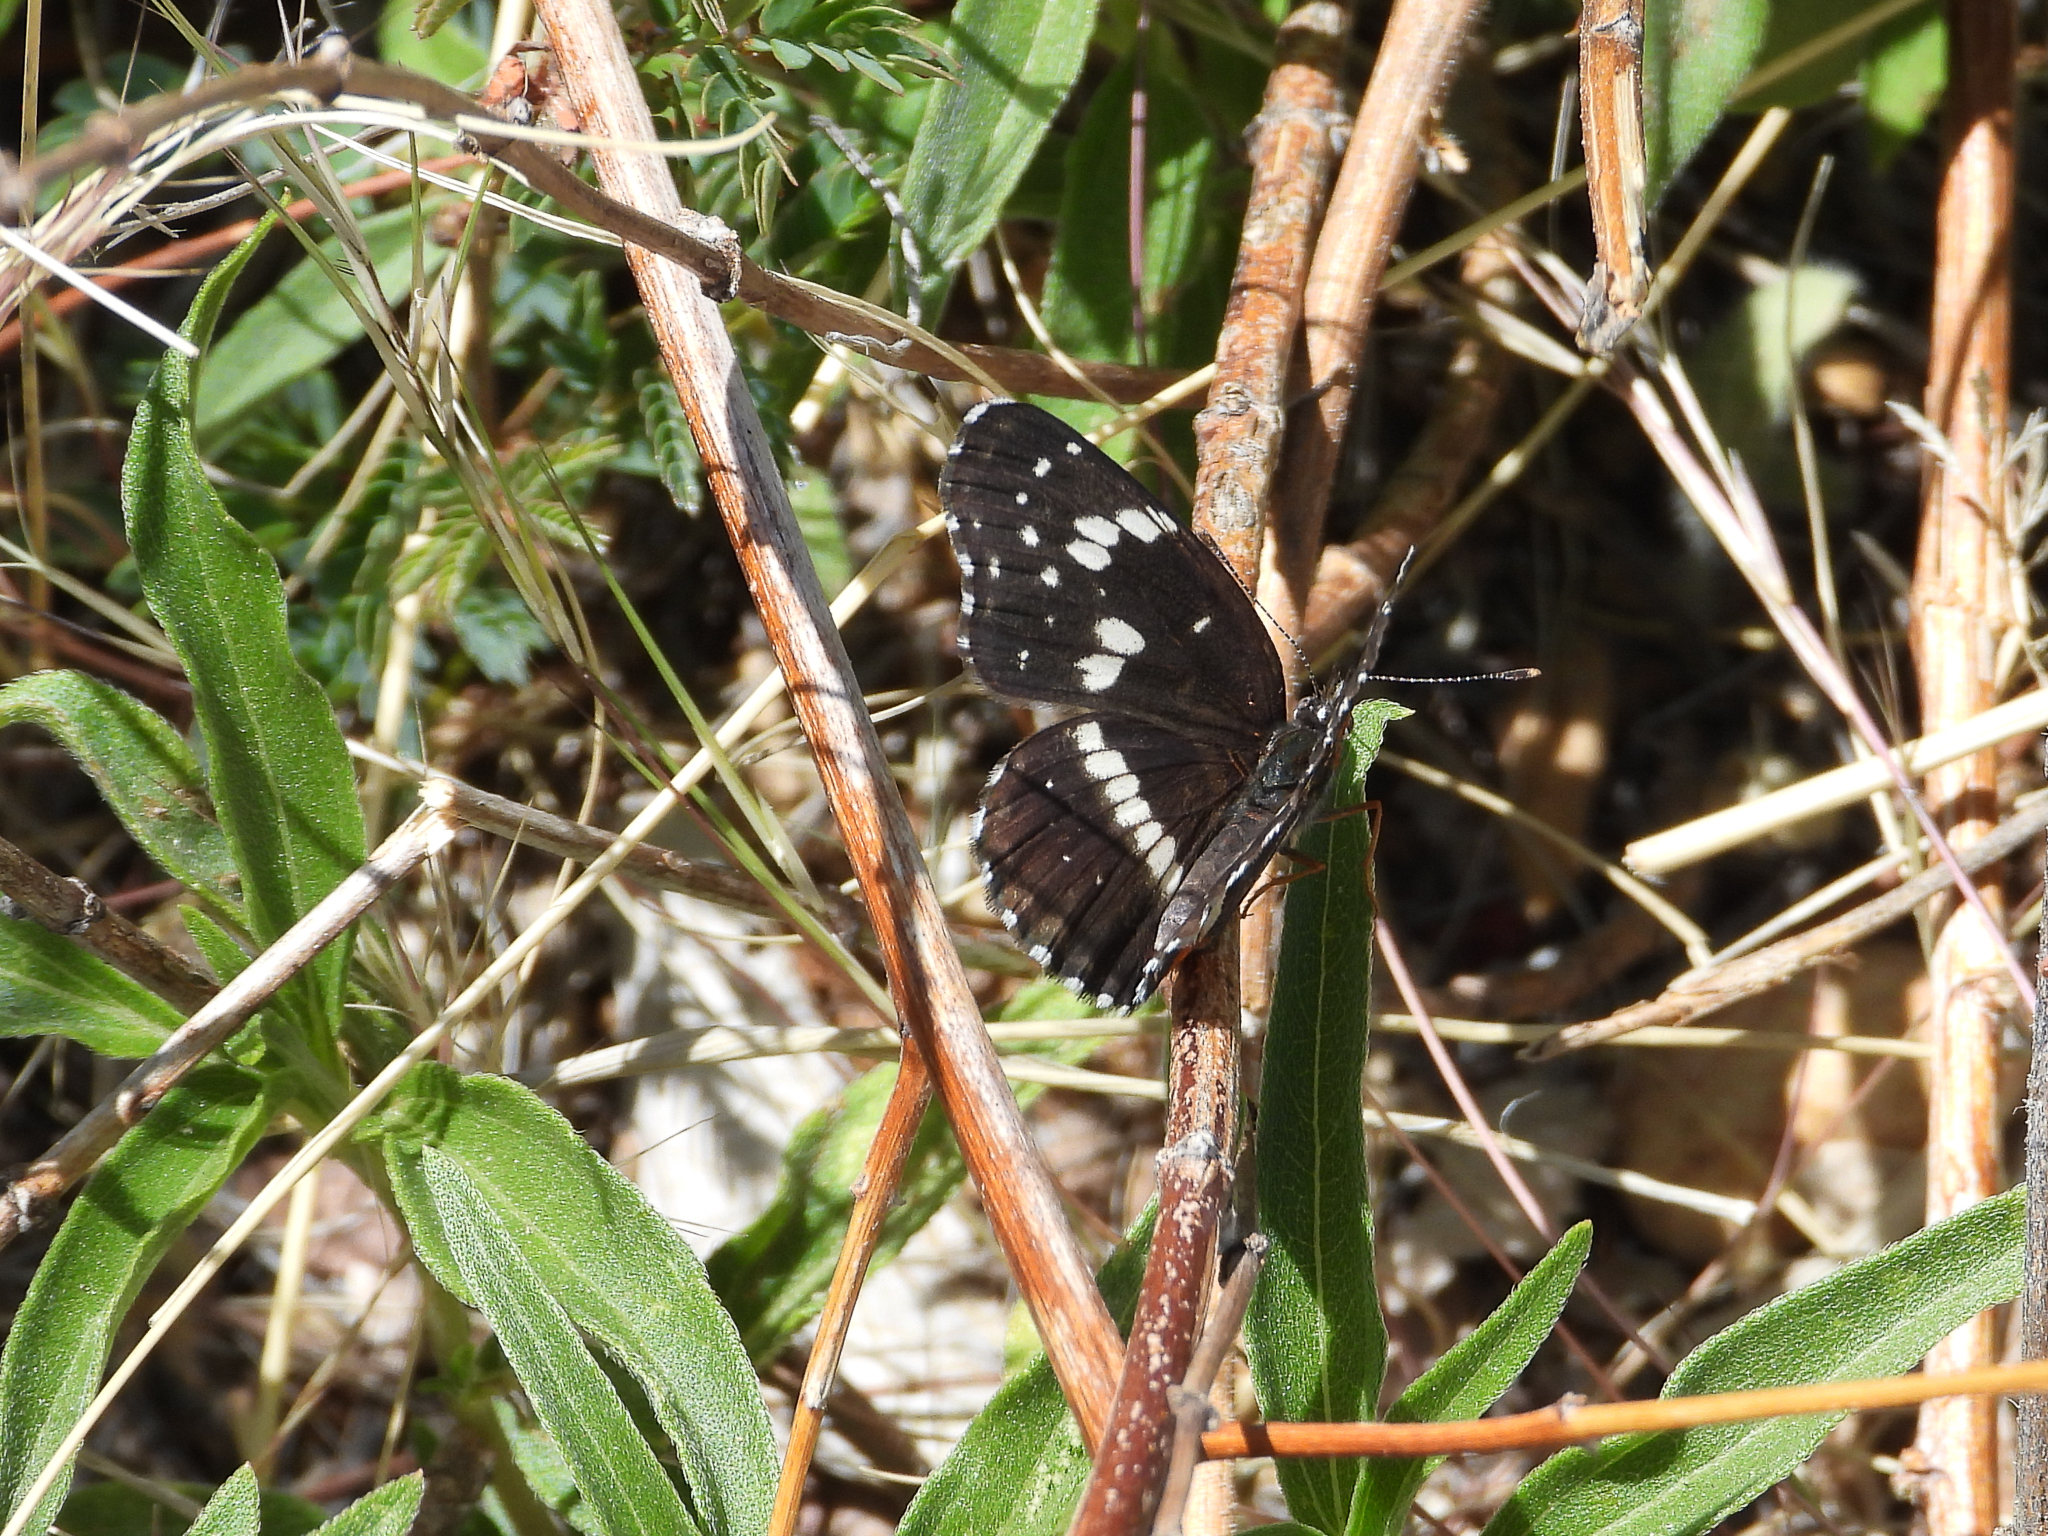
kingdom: Animalia
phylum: Arthropoda
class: Insecta
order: Lepidoptera
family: Nymphalidae
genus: Chlosyne
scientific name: Chlosyne lacinia
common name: Bordered patch
